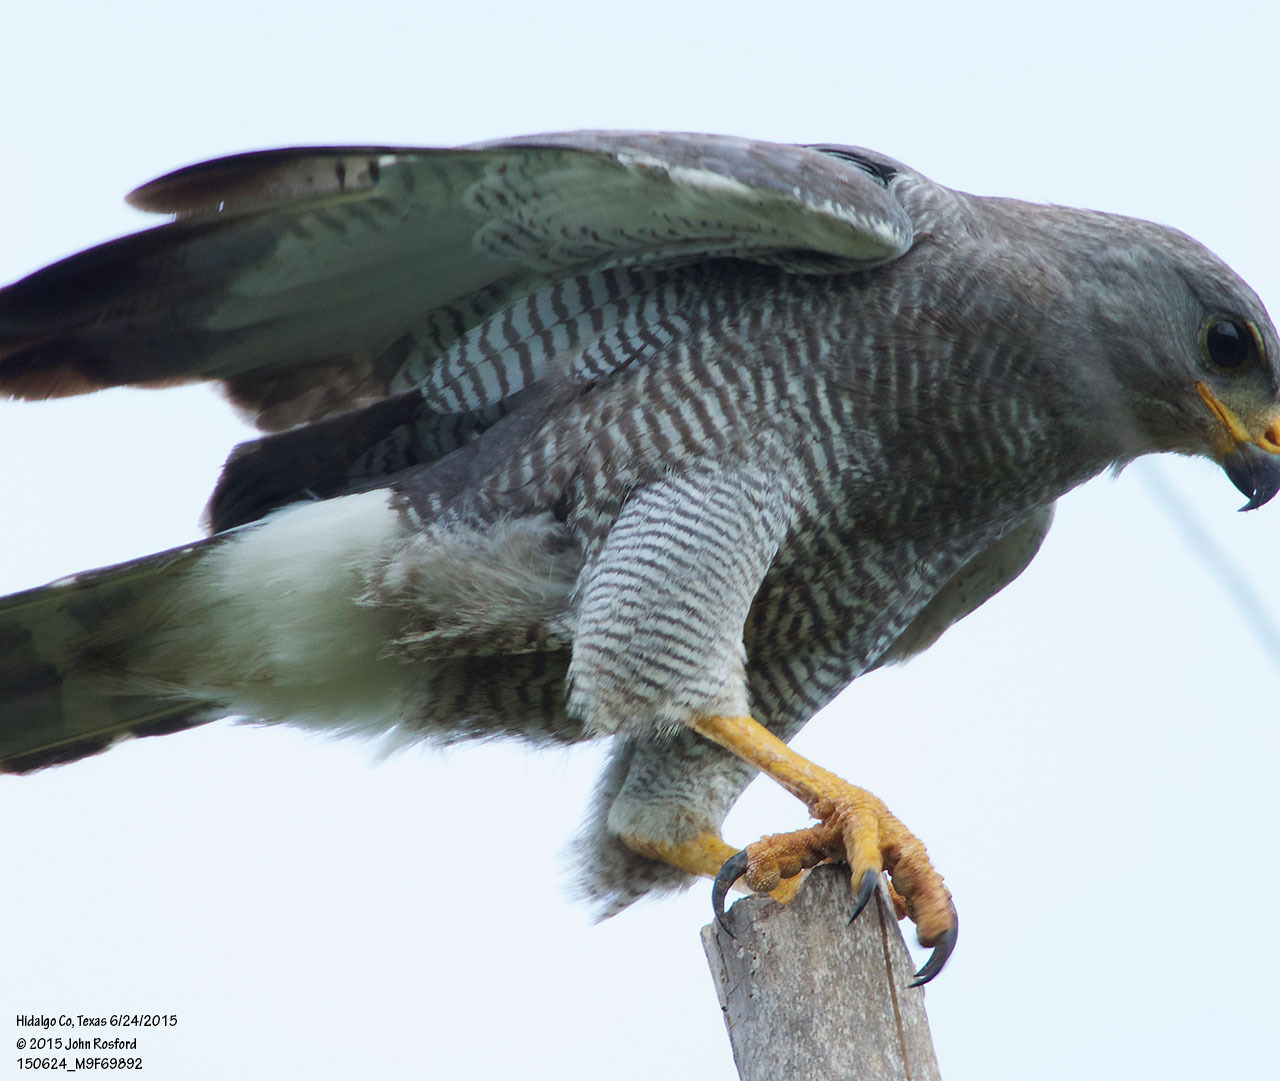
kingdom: Animalia
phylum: Chordata
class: Aves
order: Accipitriformes
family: Accipitridae
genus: Buteo
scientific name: Buteo nitidus
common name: Grey-lined hawk
